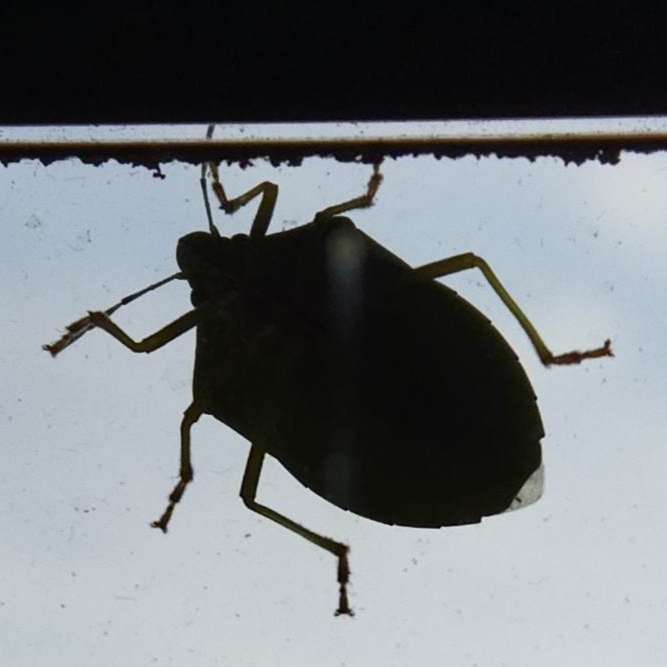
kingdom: Animalia
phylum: Arthropoda
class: Insecta
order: Hemiptera
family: Pentatomidae
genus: Nezara
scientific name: Nezara viridula
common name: Southern green stink bug
